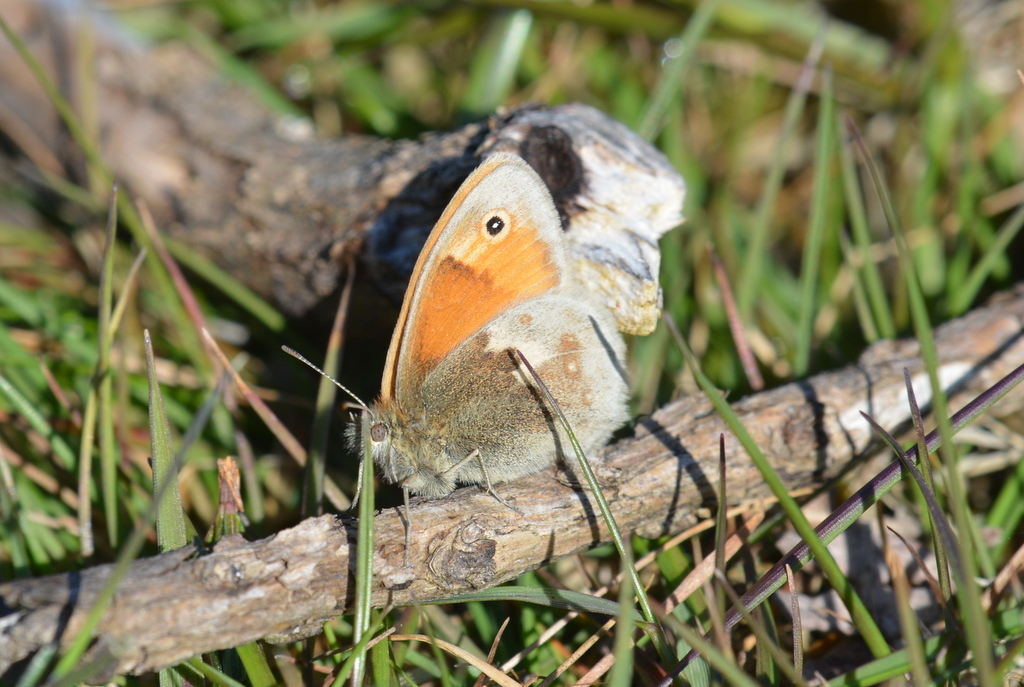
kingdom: Animalia
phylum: Arthropoda
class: Insecta
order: Lepidoptera
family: Nymphalidae
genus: Coenonympha
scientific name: Coenonympha pamphilus
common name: Small heath
